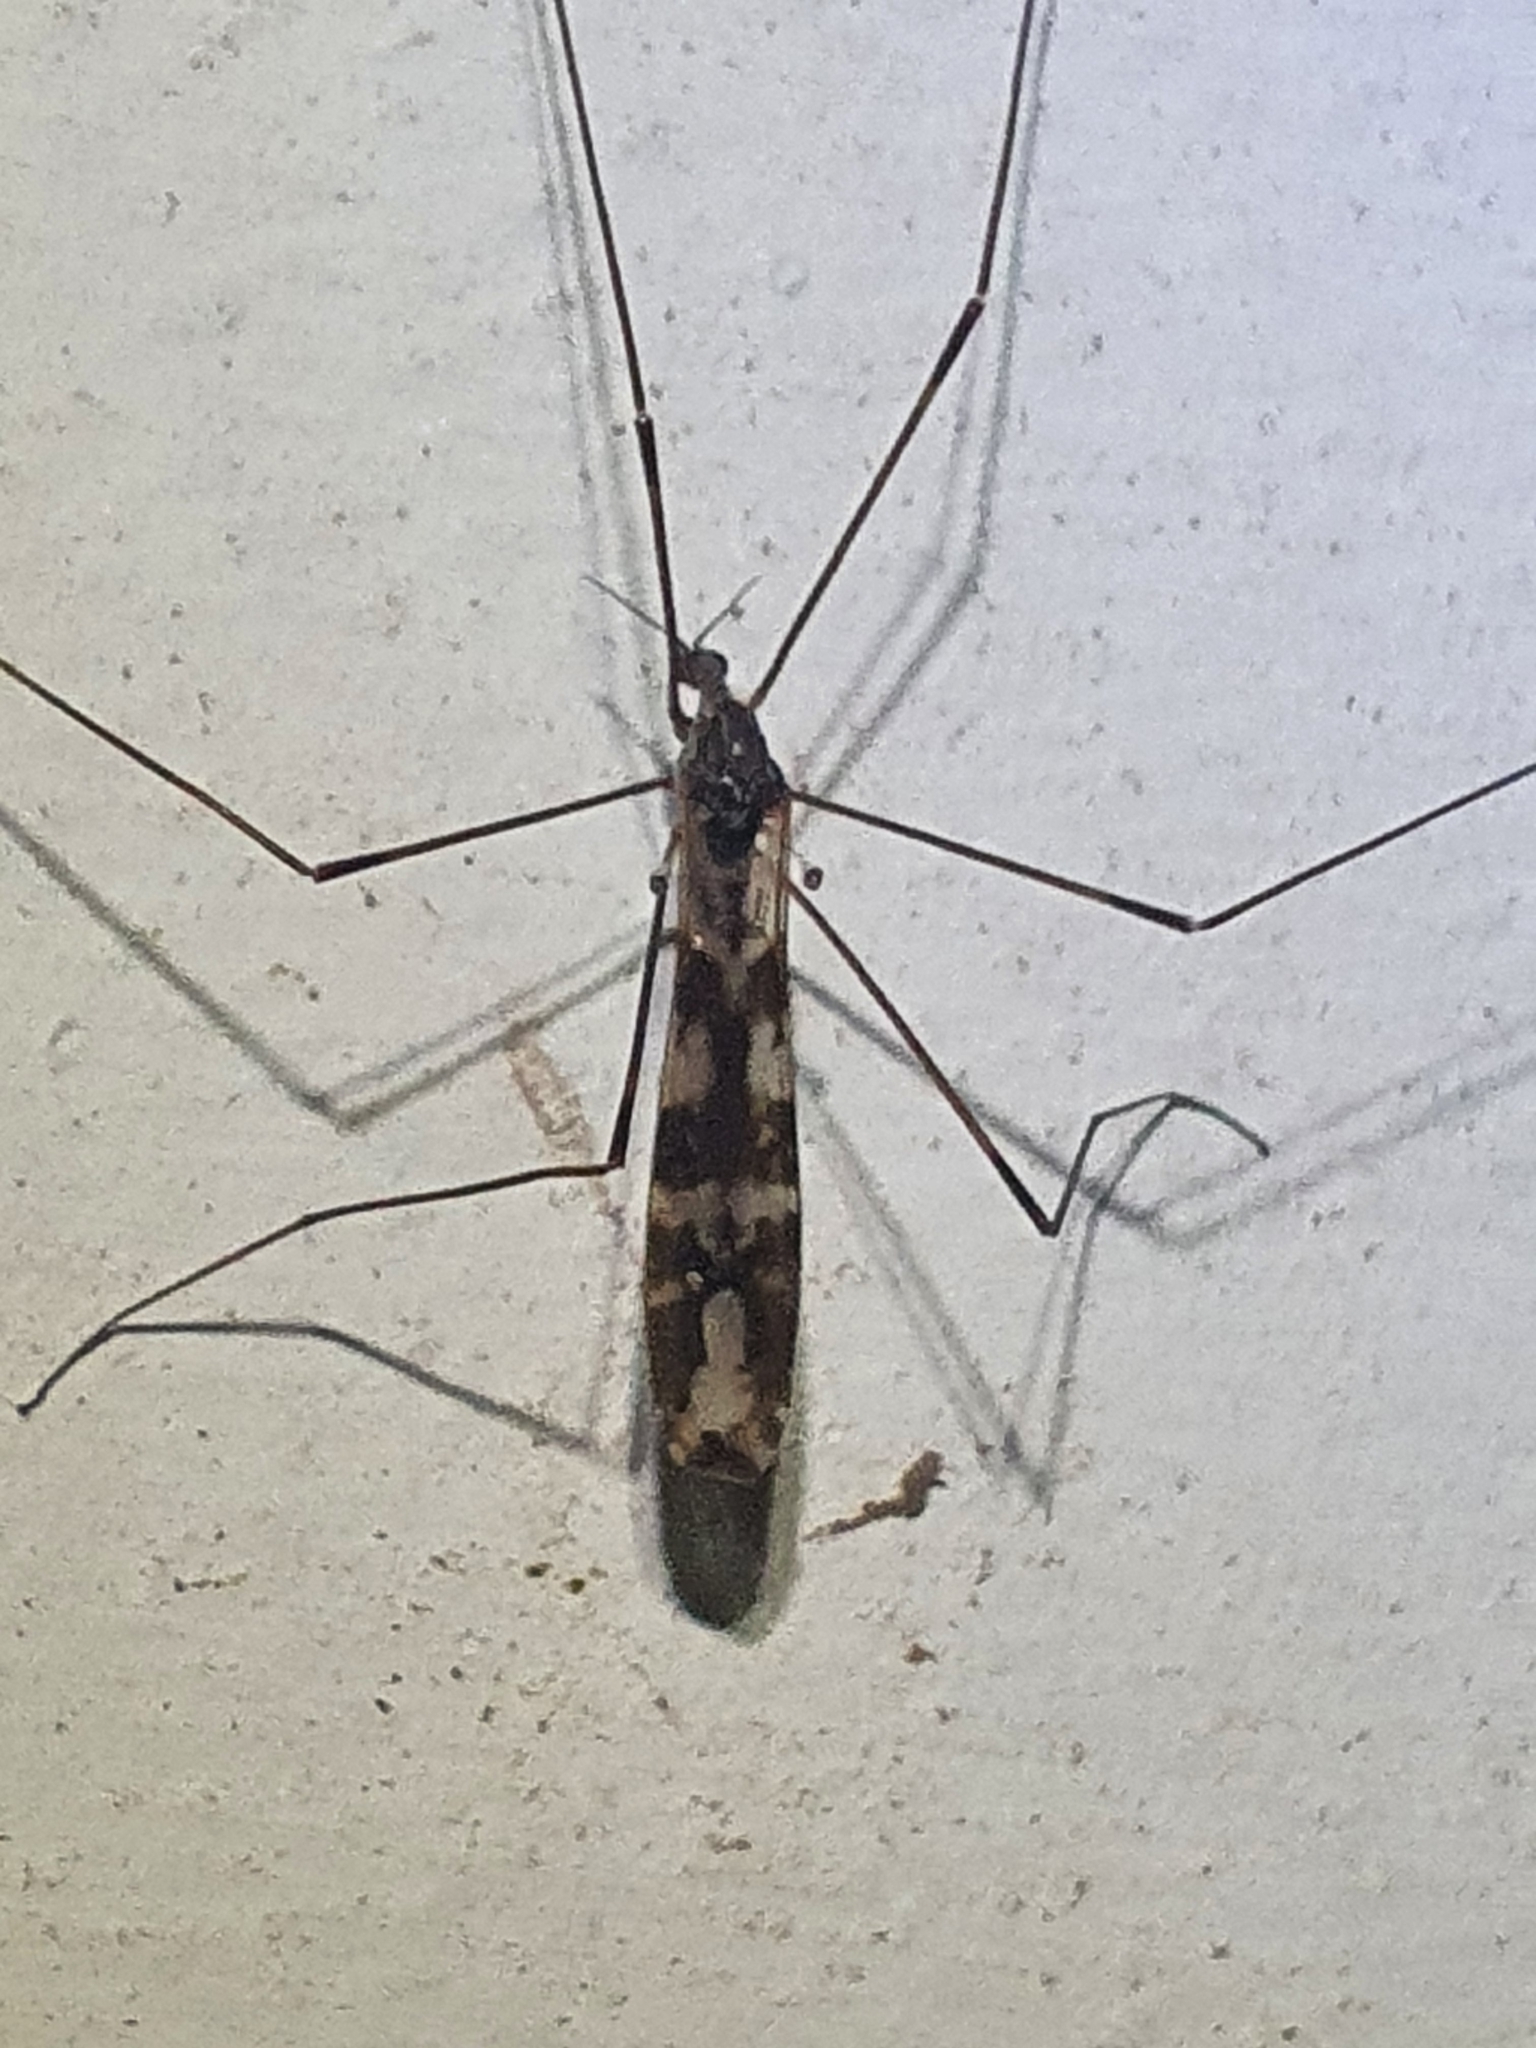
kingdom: Animalia
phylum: Arthropoda
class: Insecta
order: Diptera
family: Limoniidae
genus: Discobola
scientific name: Discobola dohrni
